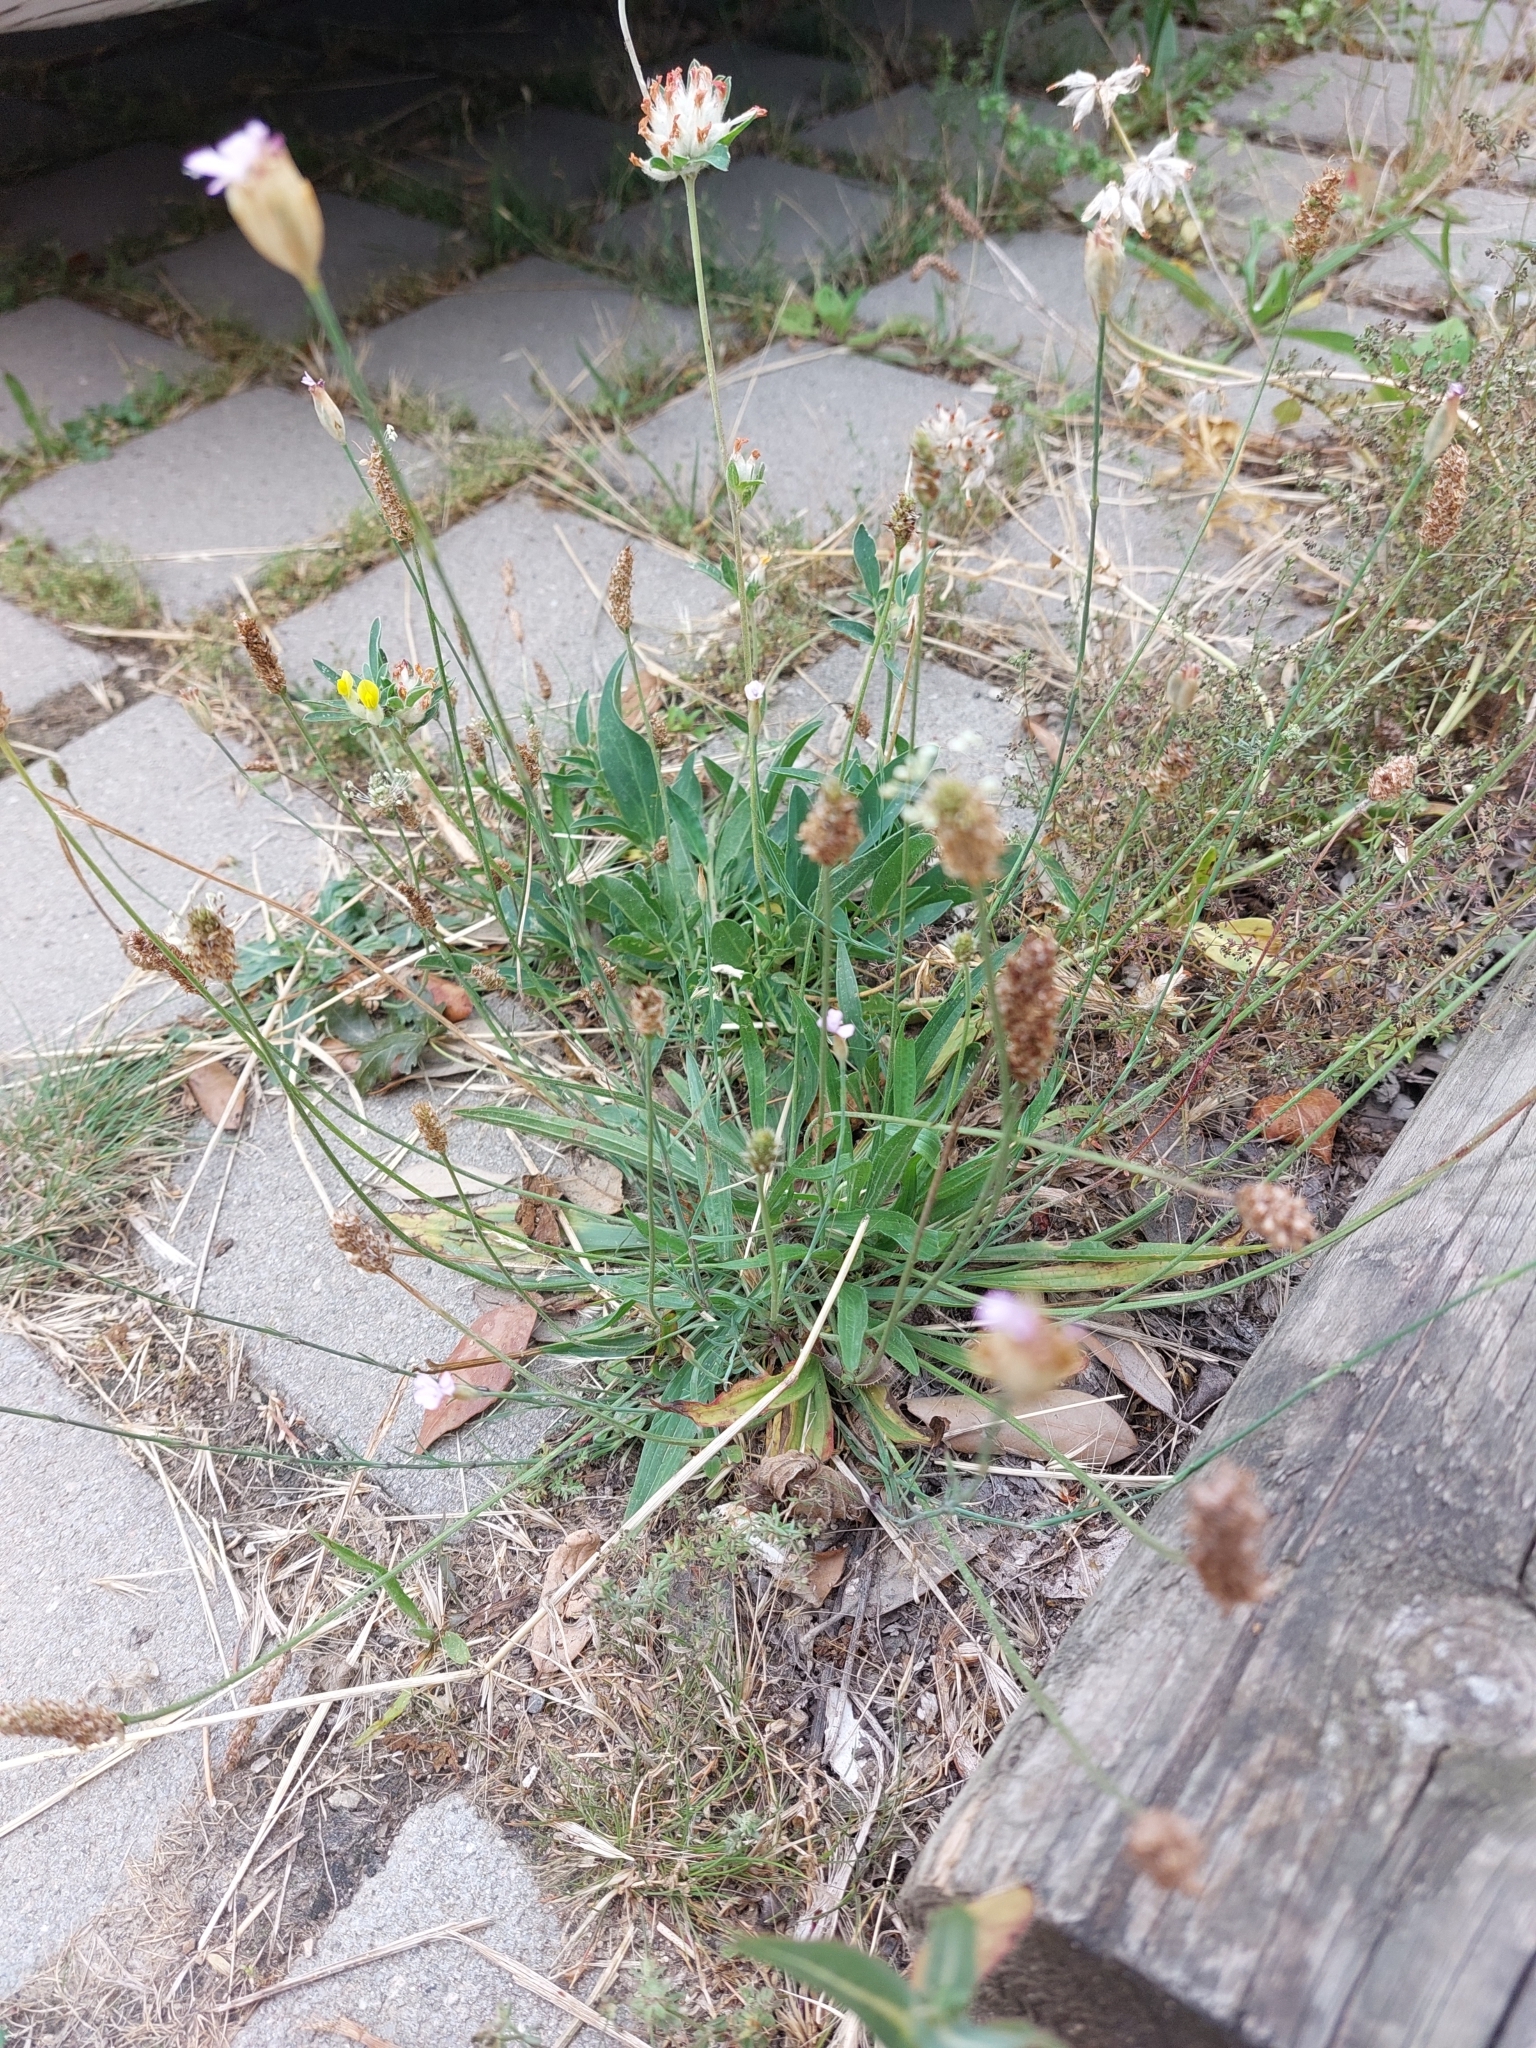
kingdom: Plantae
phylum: Tracheophyta
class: Magnoliopsida
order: Caryophyllales
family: Caryophyllaceae
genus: Petrorhagia
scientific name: Petrorhagia prolifera
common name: Proliferous pink
